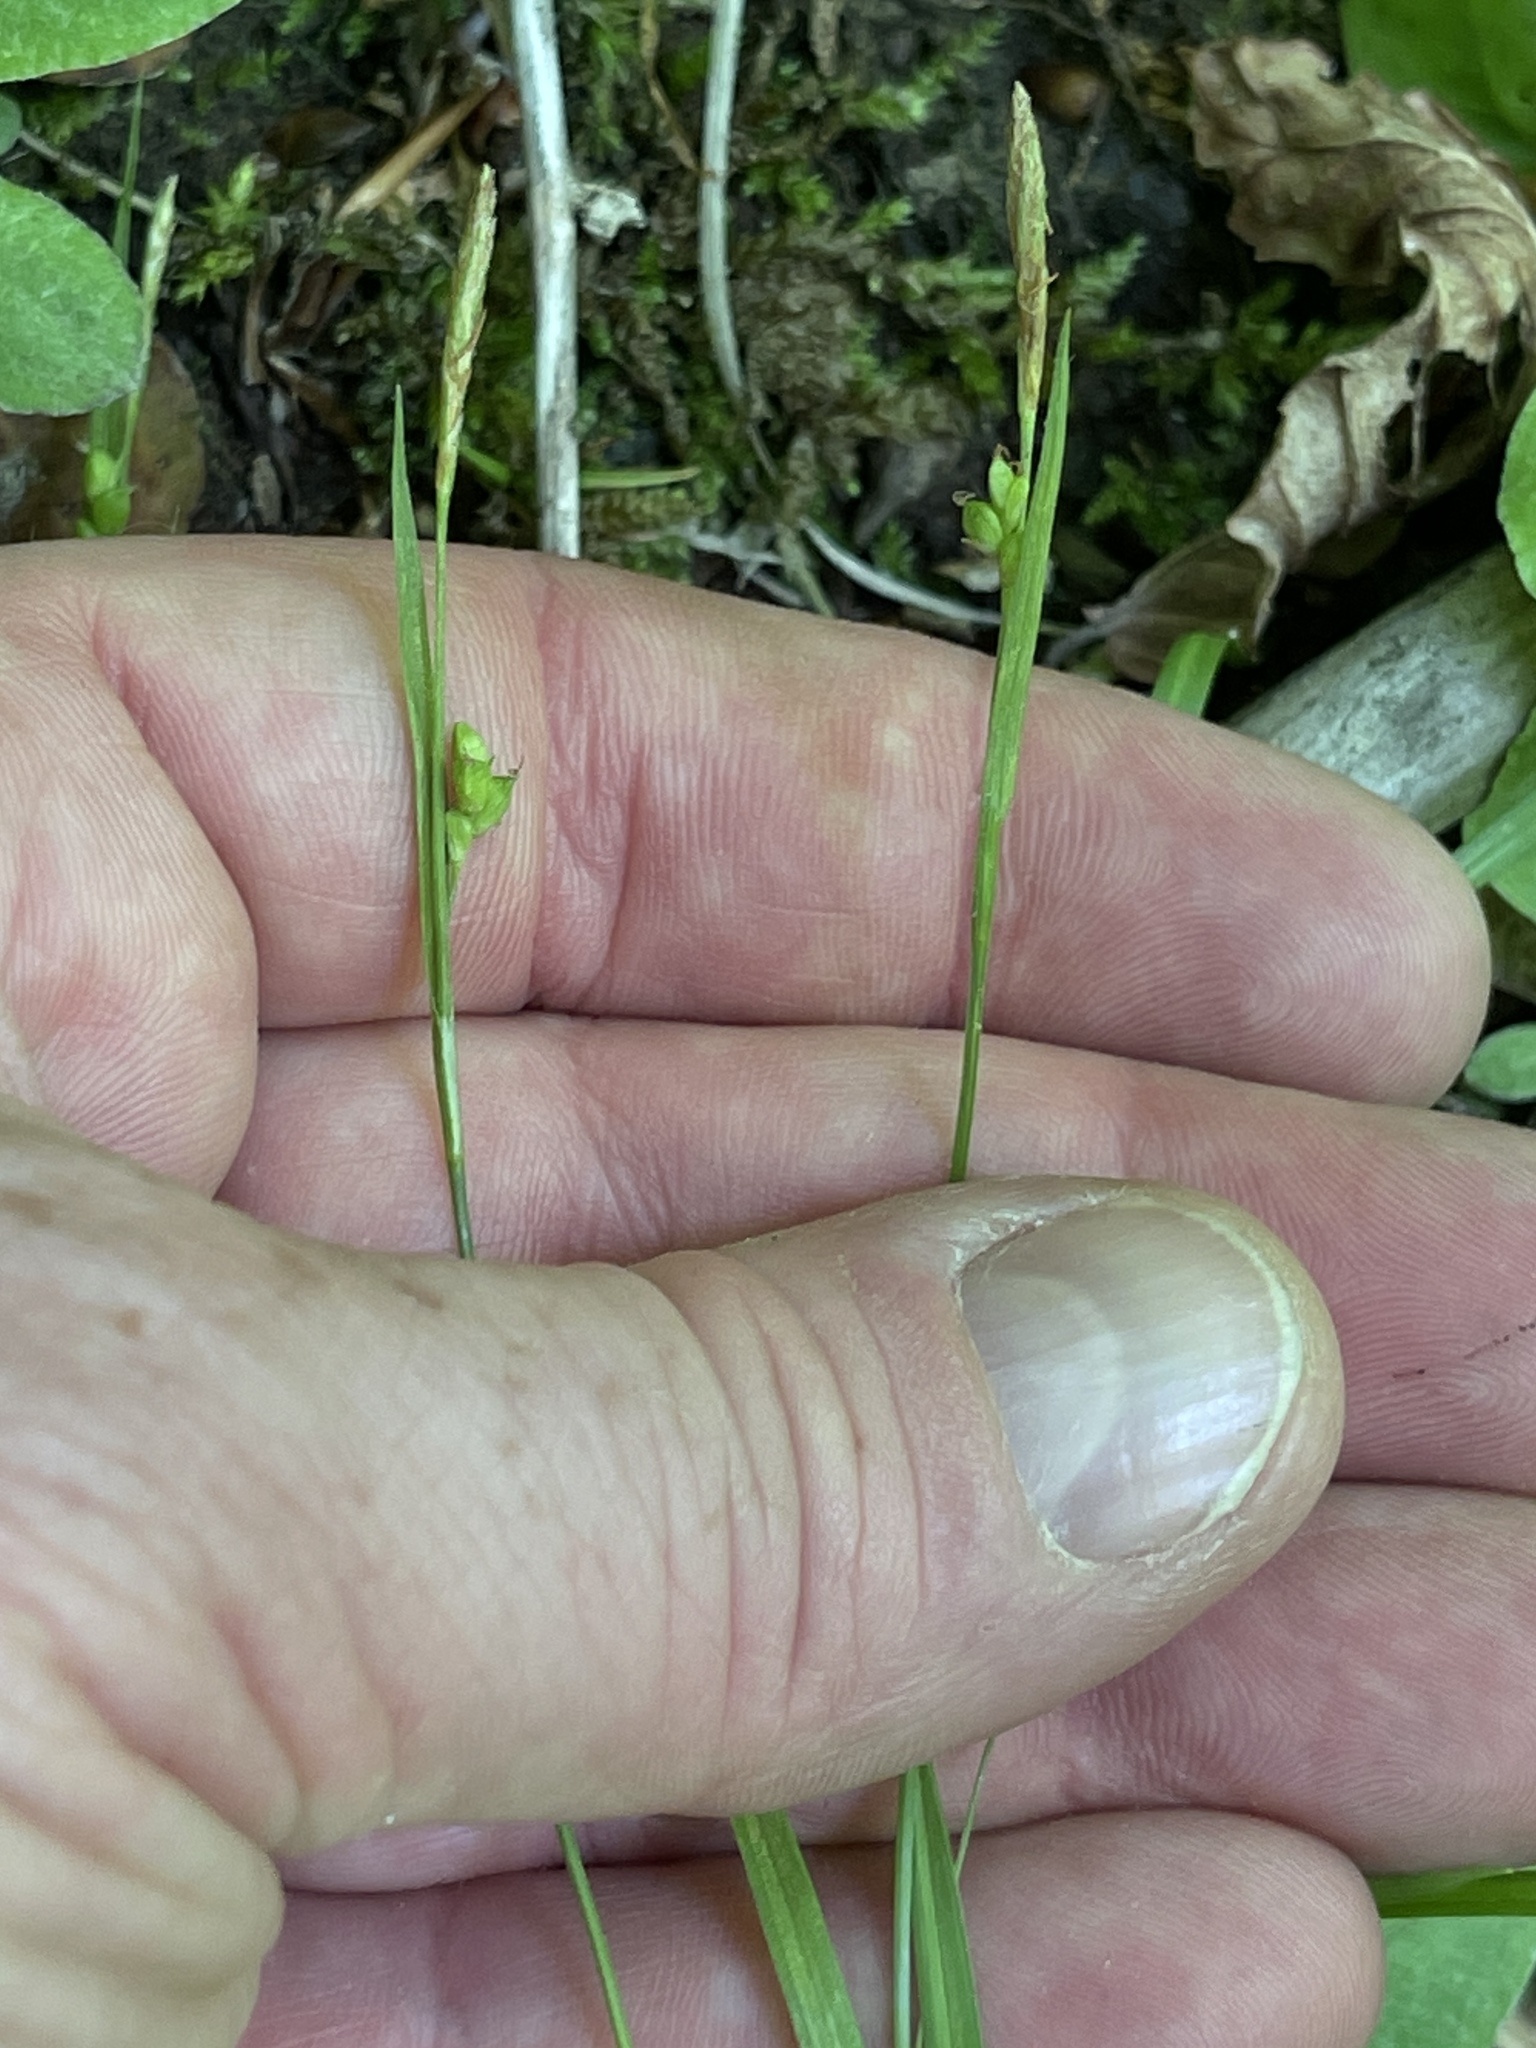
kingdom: Plantae
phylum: Tracheophyta
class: Liliopsida
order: Poales
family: Cyperaceae
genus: Carex
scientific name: Carex digitalis
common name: Slender wood sedge
